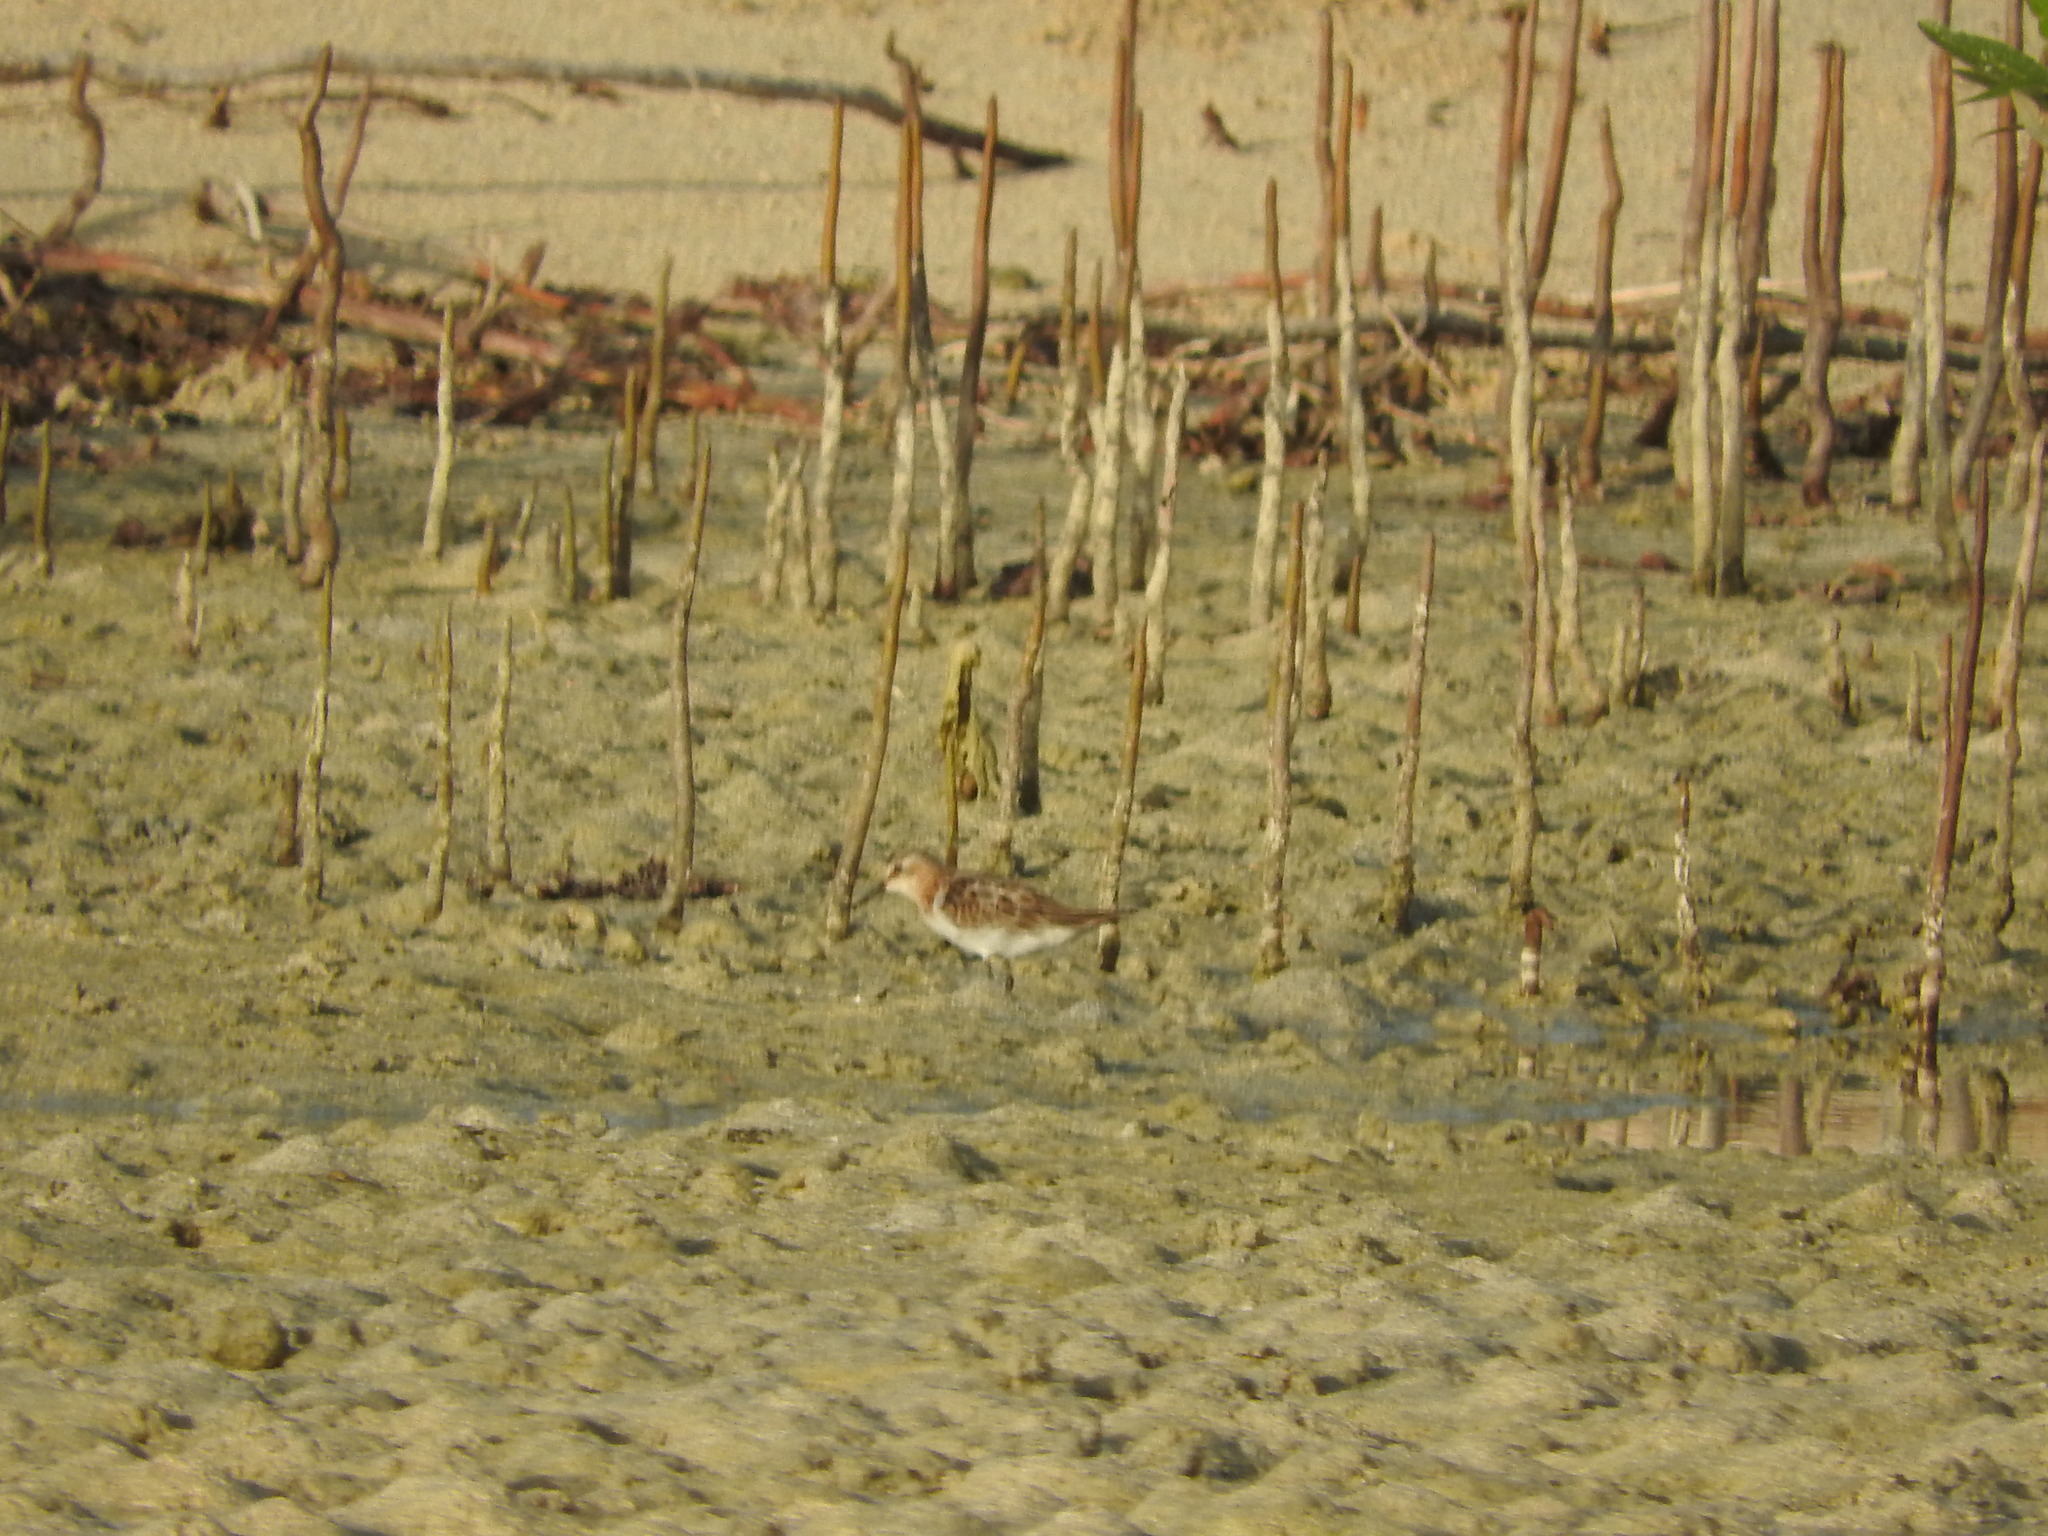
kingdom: Animalia
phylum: Chordata
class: Aves
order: Charadriiformes
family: Scolopacidae
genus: Calidris
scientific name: Calidris minuta
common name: Little stint
